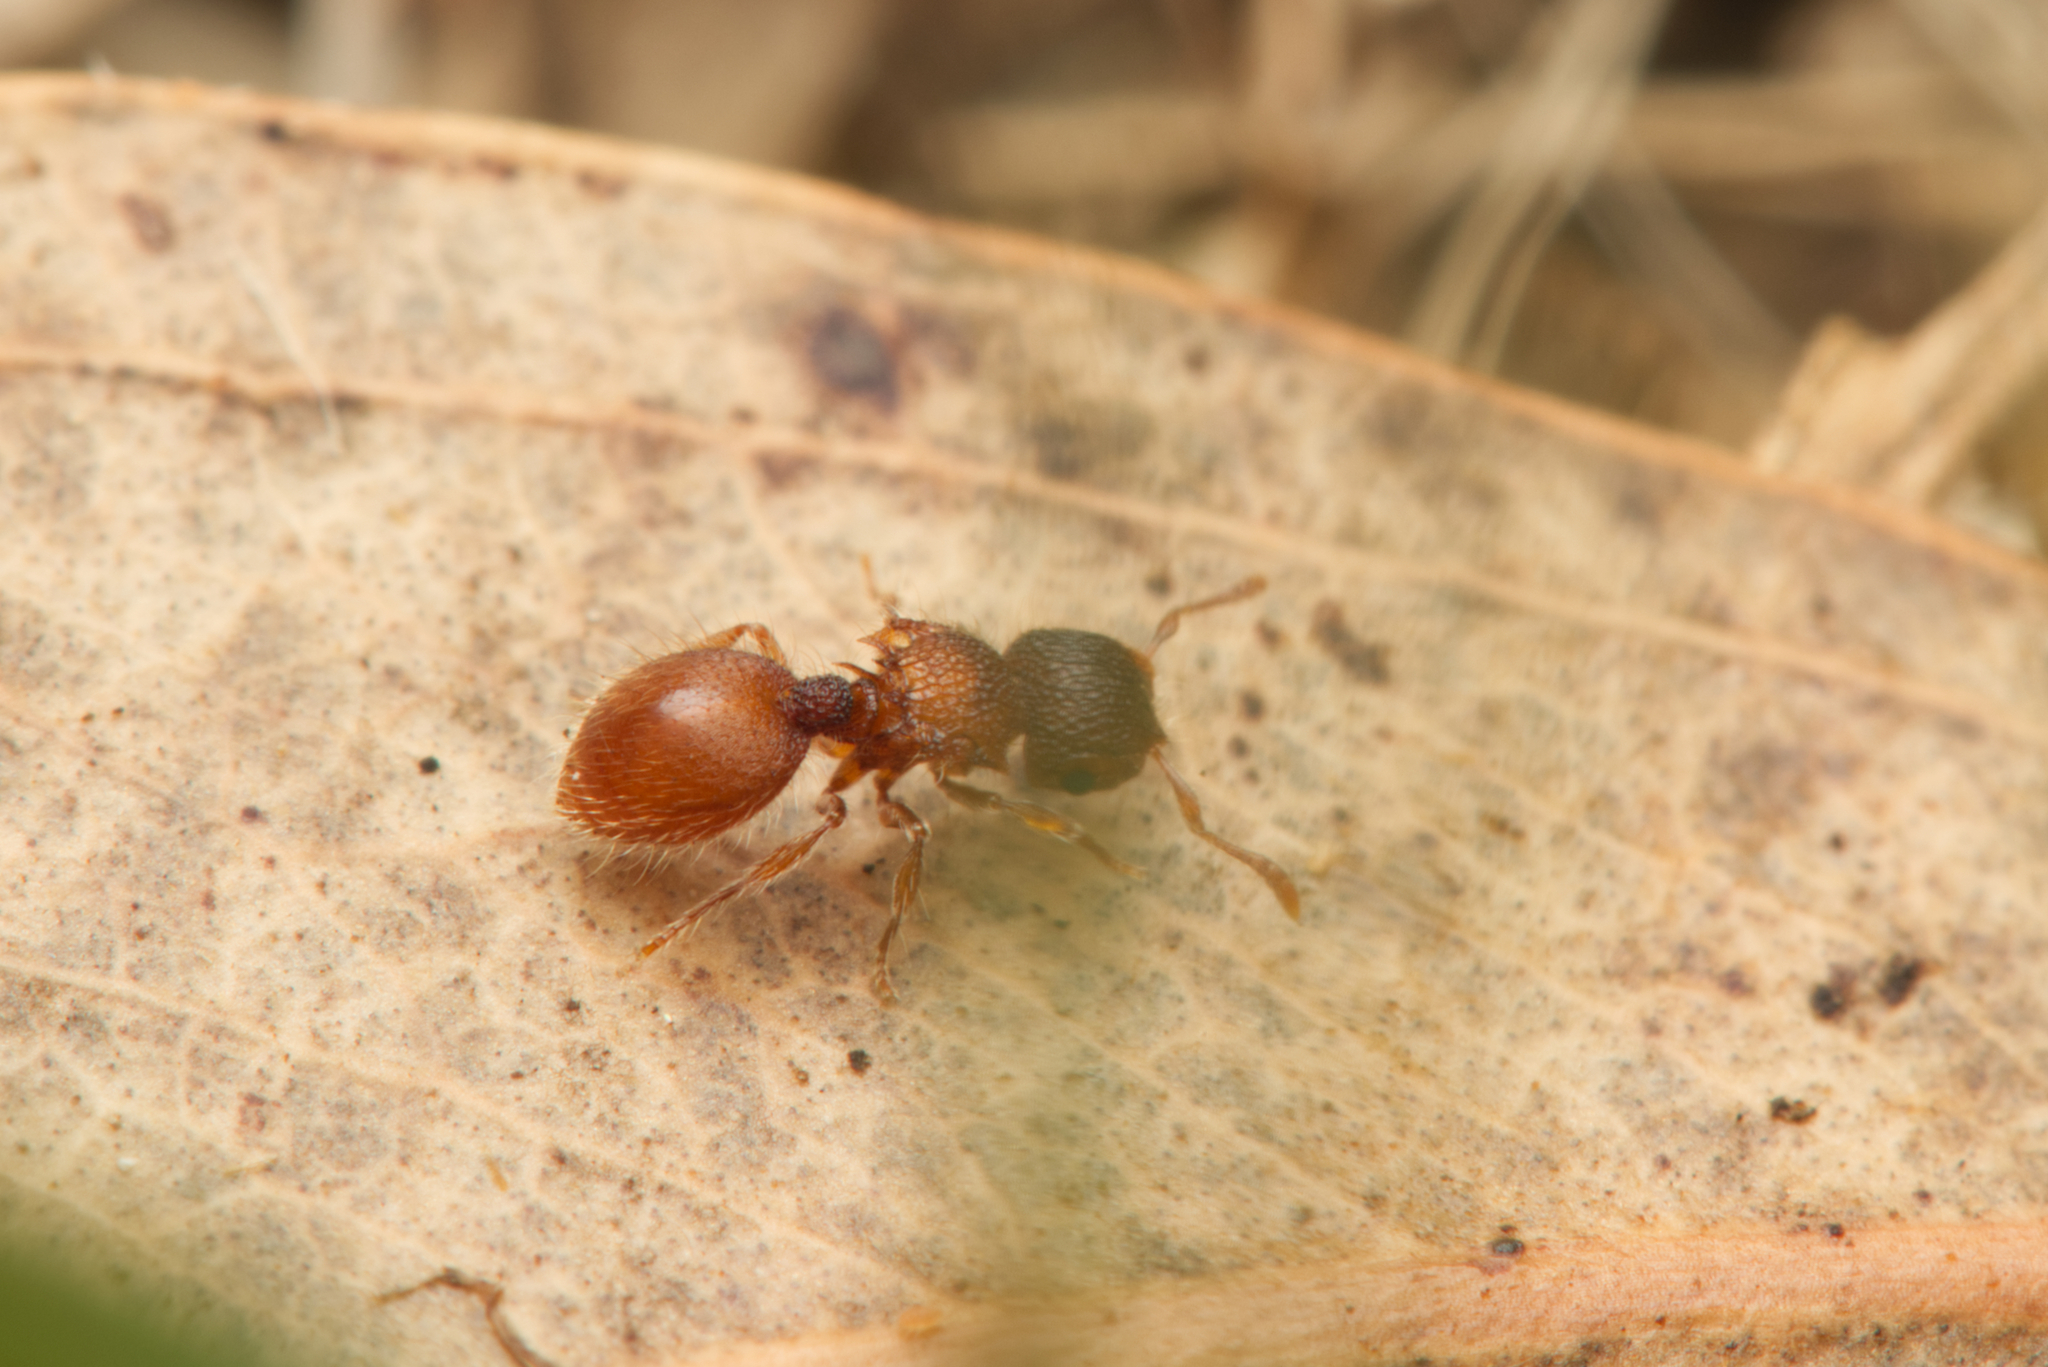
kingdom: Animalia
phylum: Arthropoda
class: Insecta
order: Hymenoptera
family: Formicidae
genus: Meranoplus
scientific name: Meranoplus froggatti
